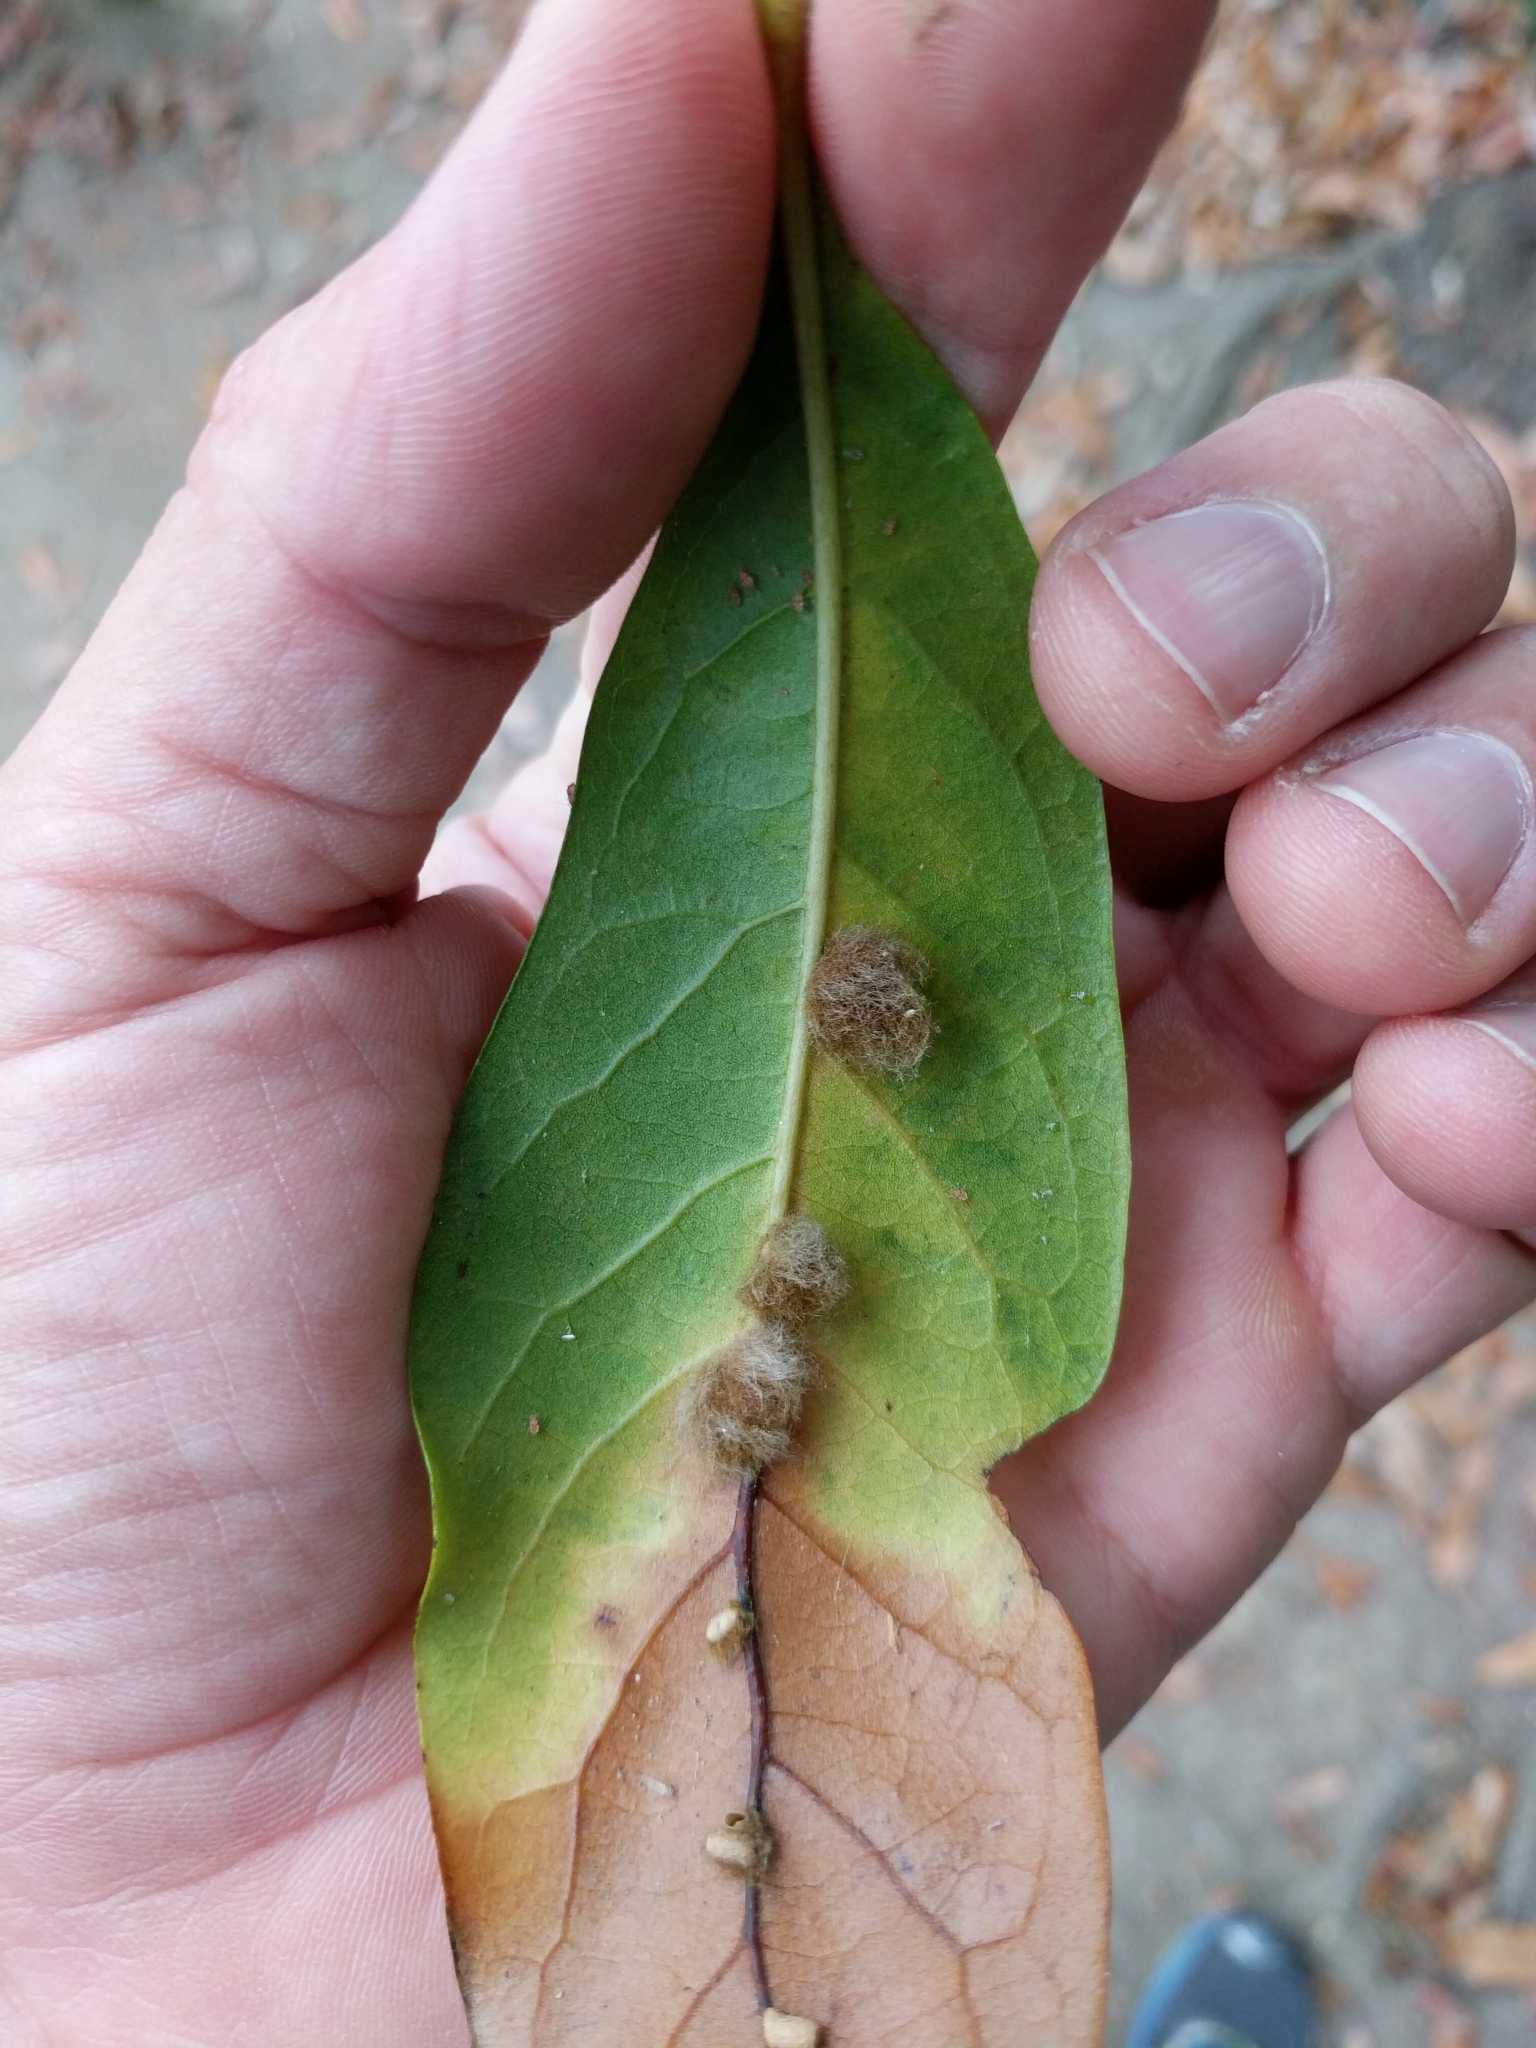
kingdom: Animalia
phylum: Arthropoda
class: Insecta
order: Hymenoptera
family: Cynipidae
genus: Andricus
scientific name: Andricus Druon quercuslanigerum
